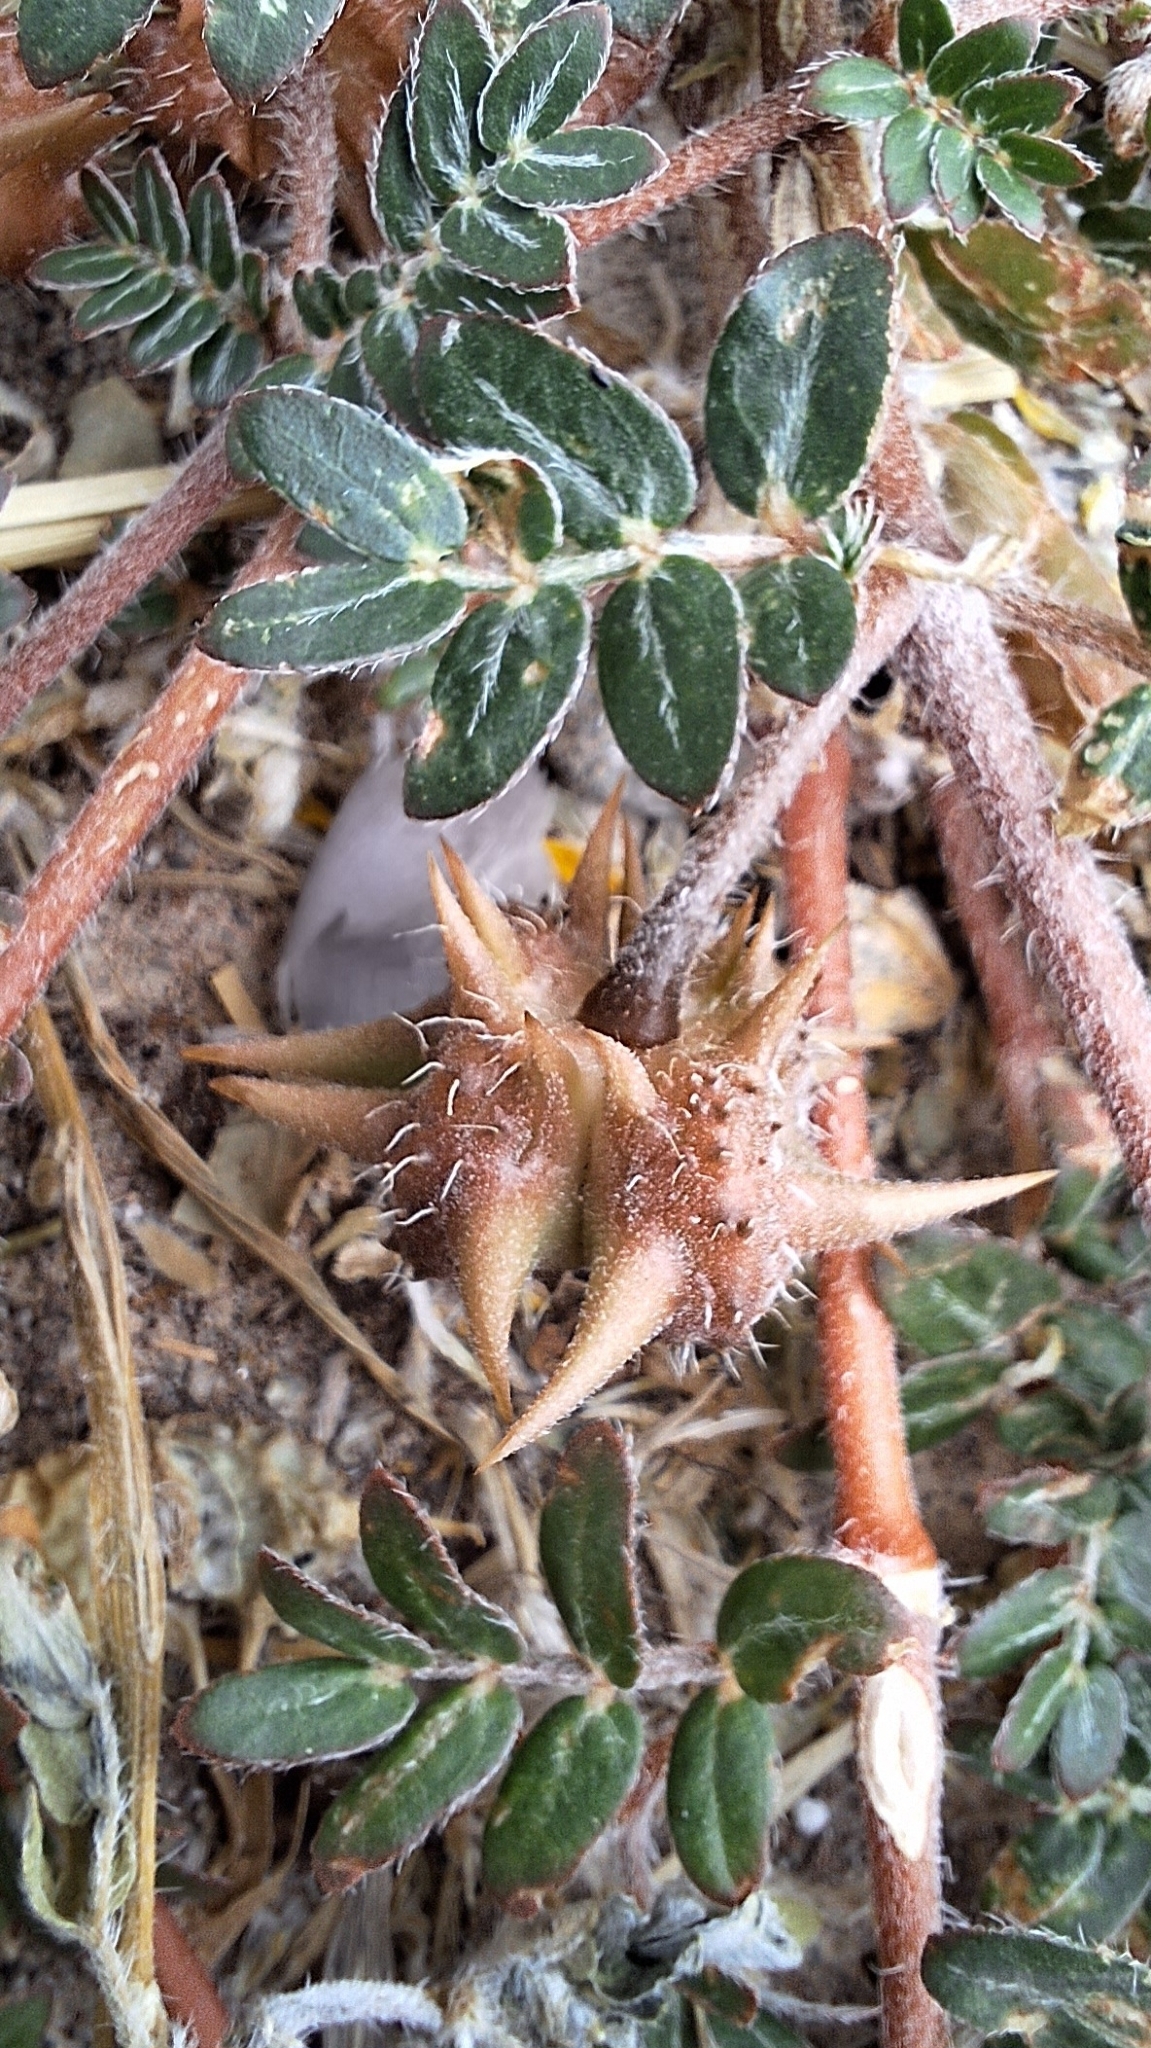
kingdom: Plantae
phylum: Tracheophyta
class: Magnoliopsida
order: Zygophyllales
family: Zygophyllaceae
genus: Tribulus
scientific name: Tribulus terrestris
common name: Puncturevine
